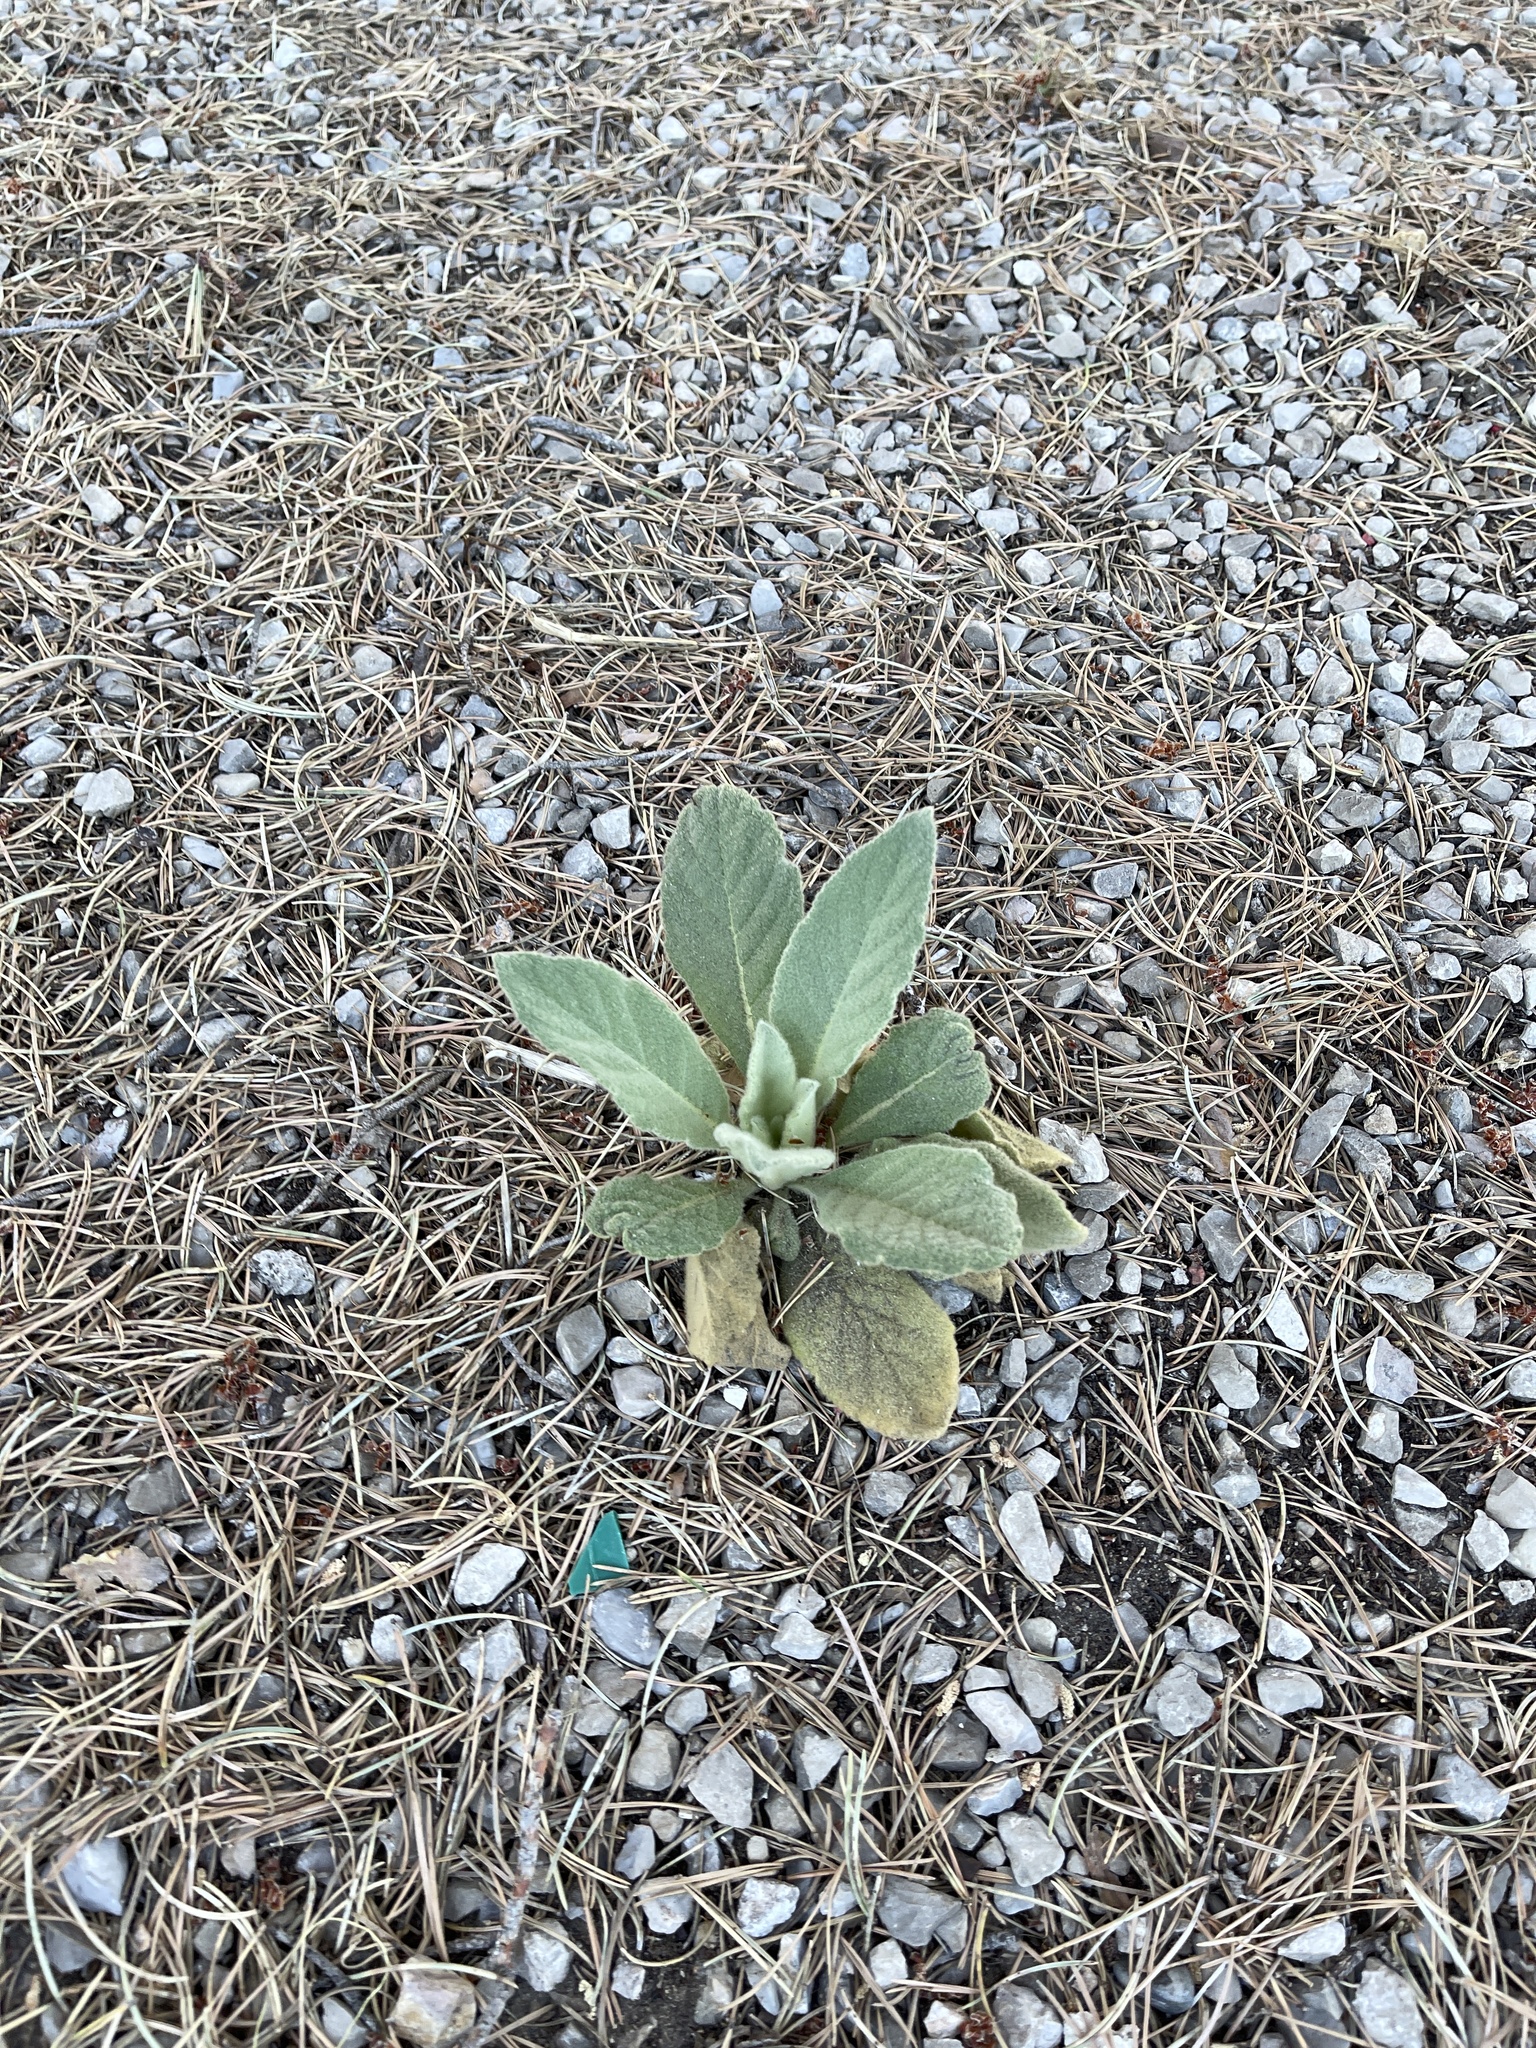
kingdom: Plantae
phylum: Tracheophyta
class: Magnoliopsida
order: Lamiales
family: Scrophulariaceae
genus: Verbascum
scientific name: Verbascum thapsus
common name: Common mullein
